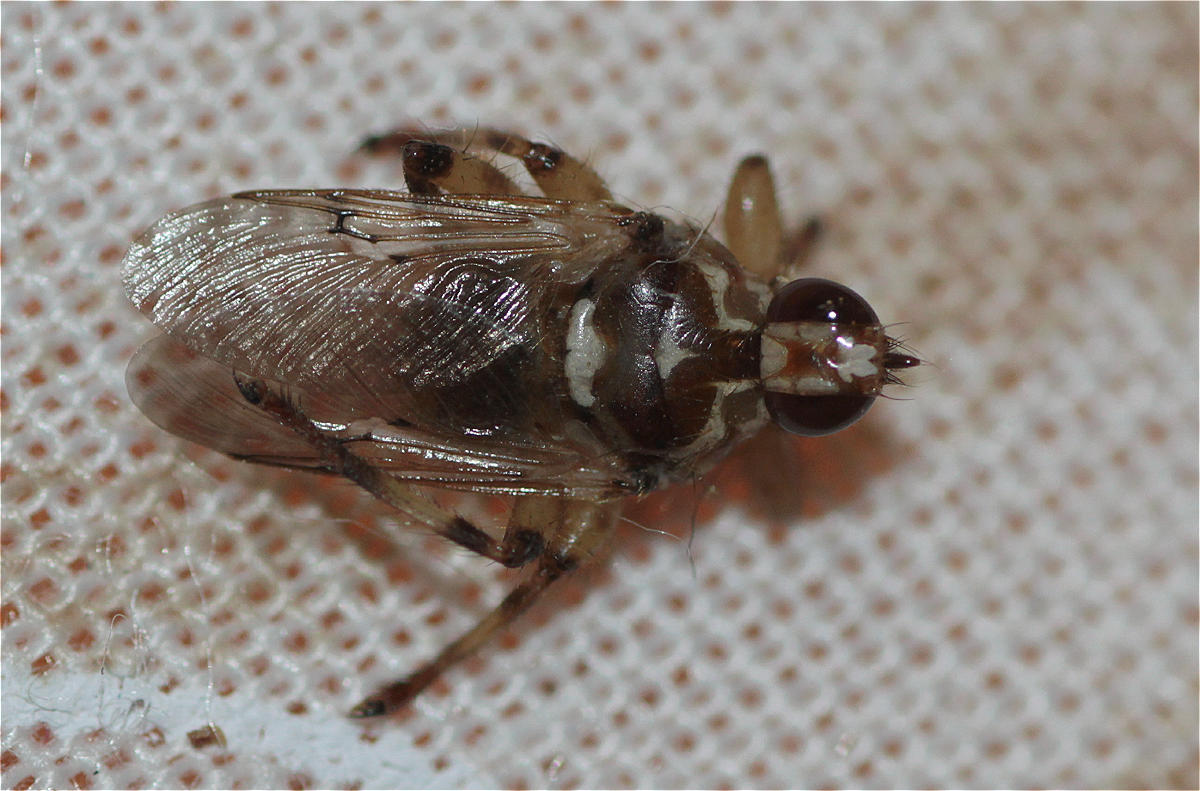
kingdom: Animalia
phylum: Arthropoda
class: Insecta
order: Diptera
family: Hippoboscidae
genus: Hippobosca
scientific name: Hippobosca equina
